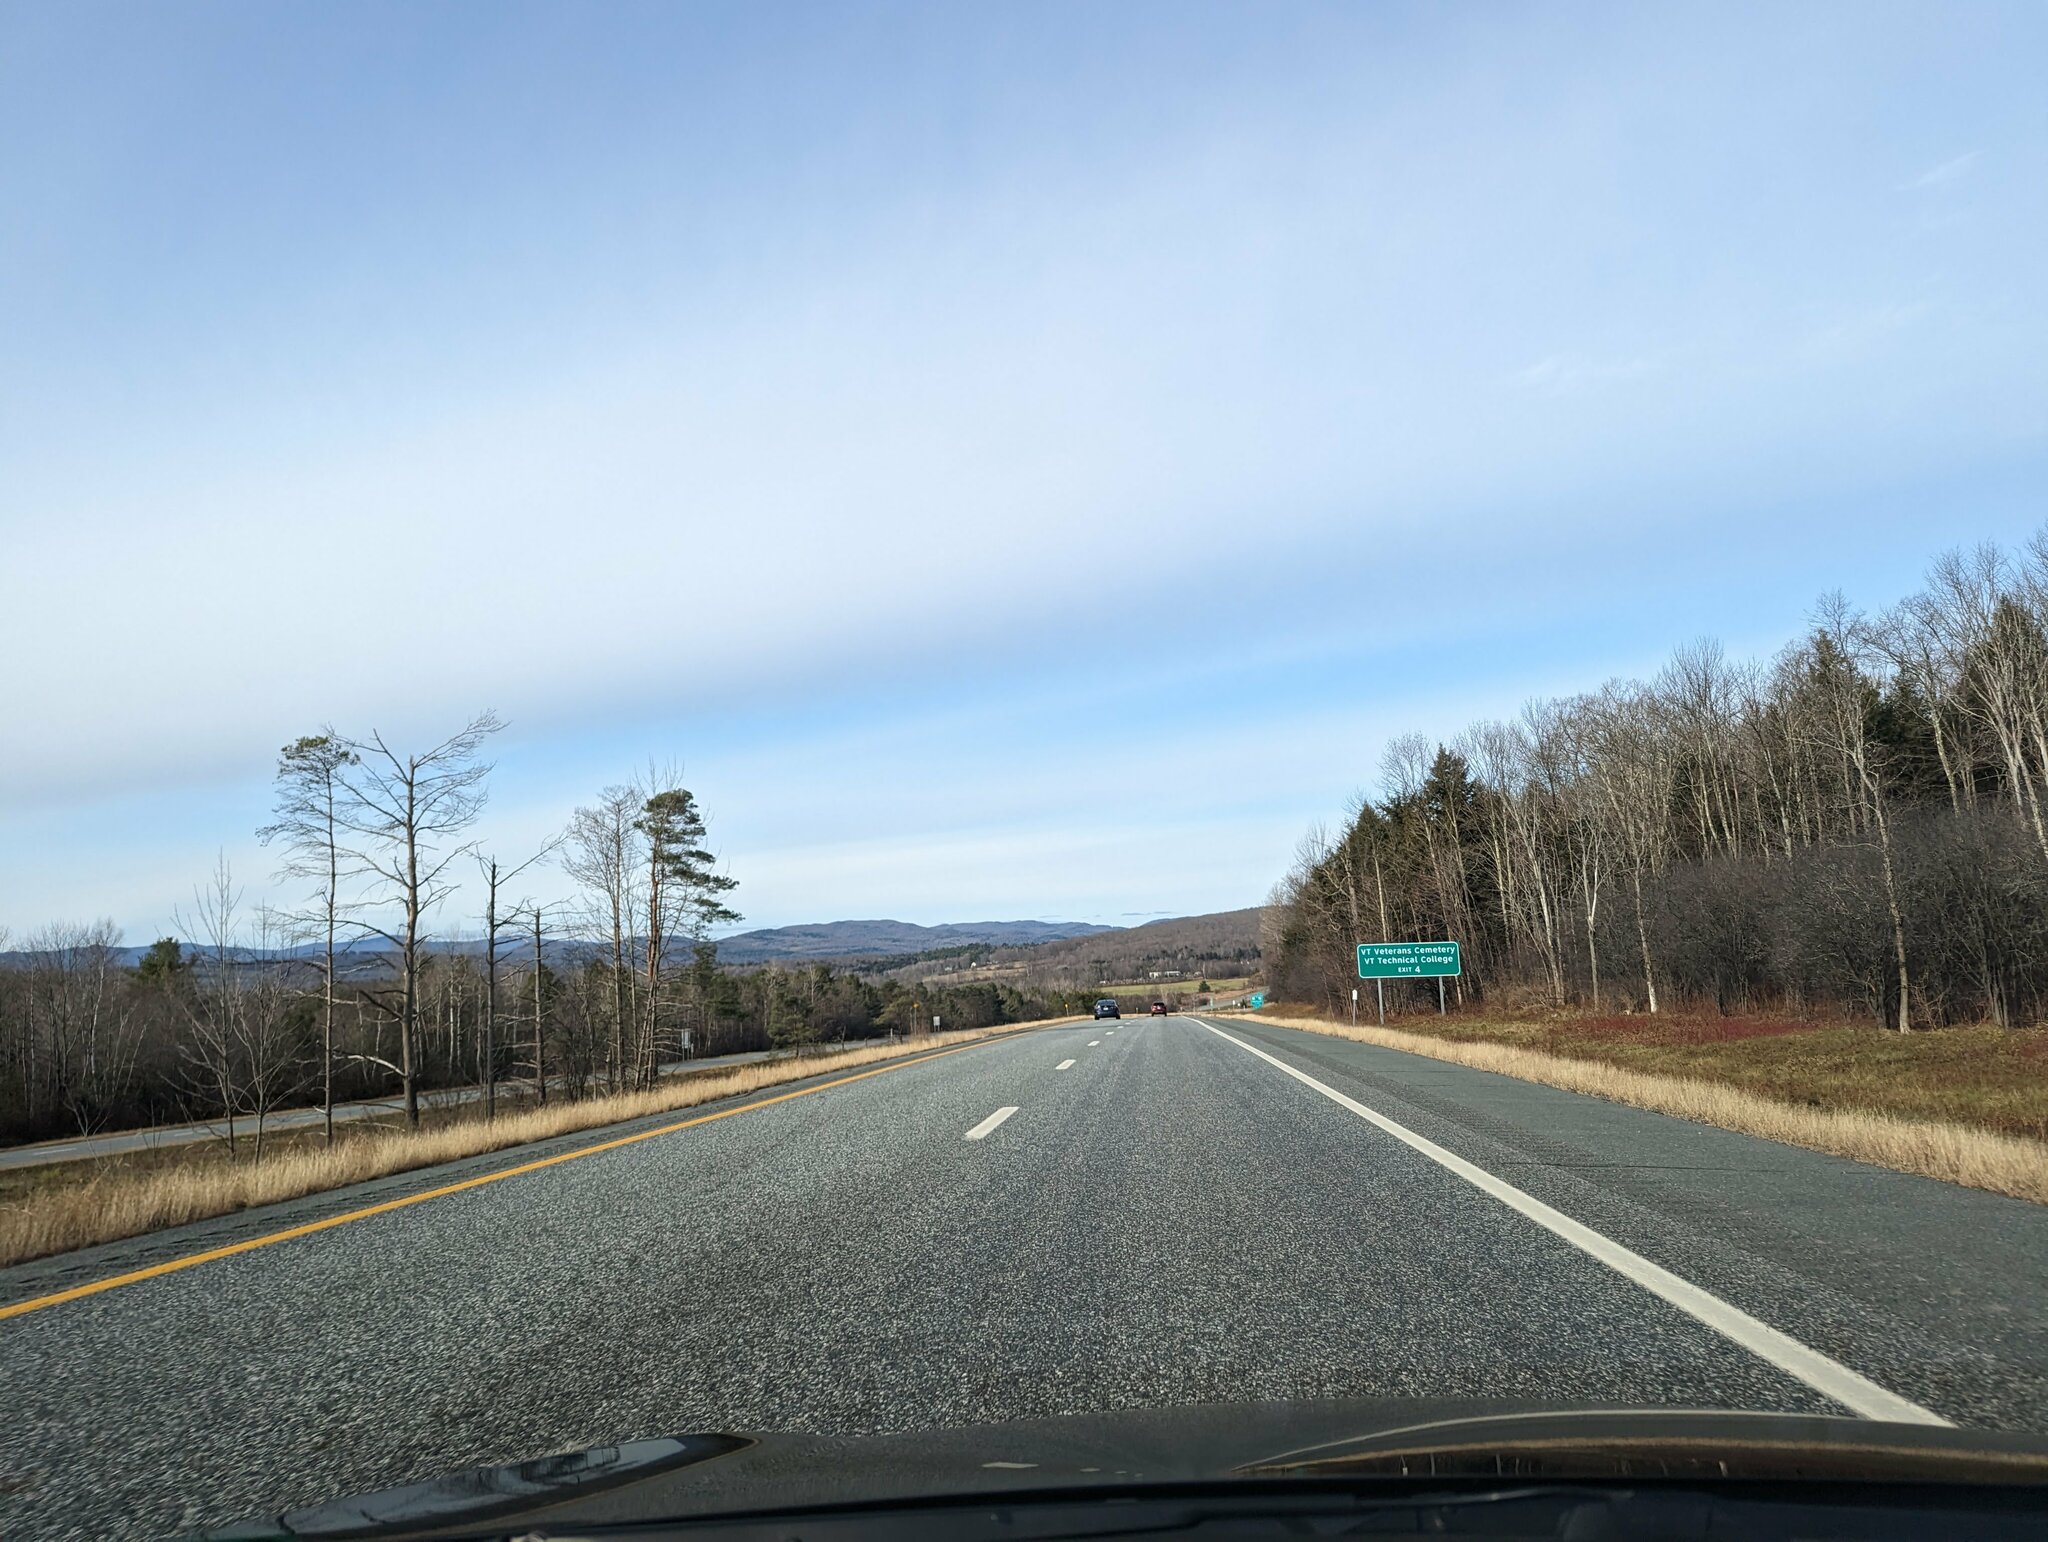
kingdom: Plantae
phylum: Tracheophyta
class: Pinopsida
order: Pinales
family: Pinaceae
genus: Pinus
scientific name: Pinus strobus
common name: Weymouth pine
